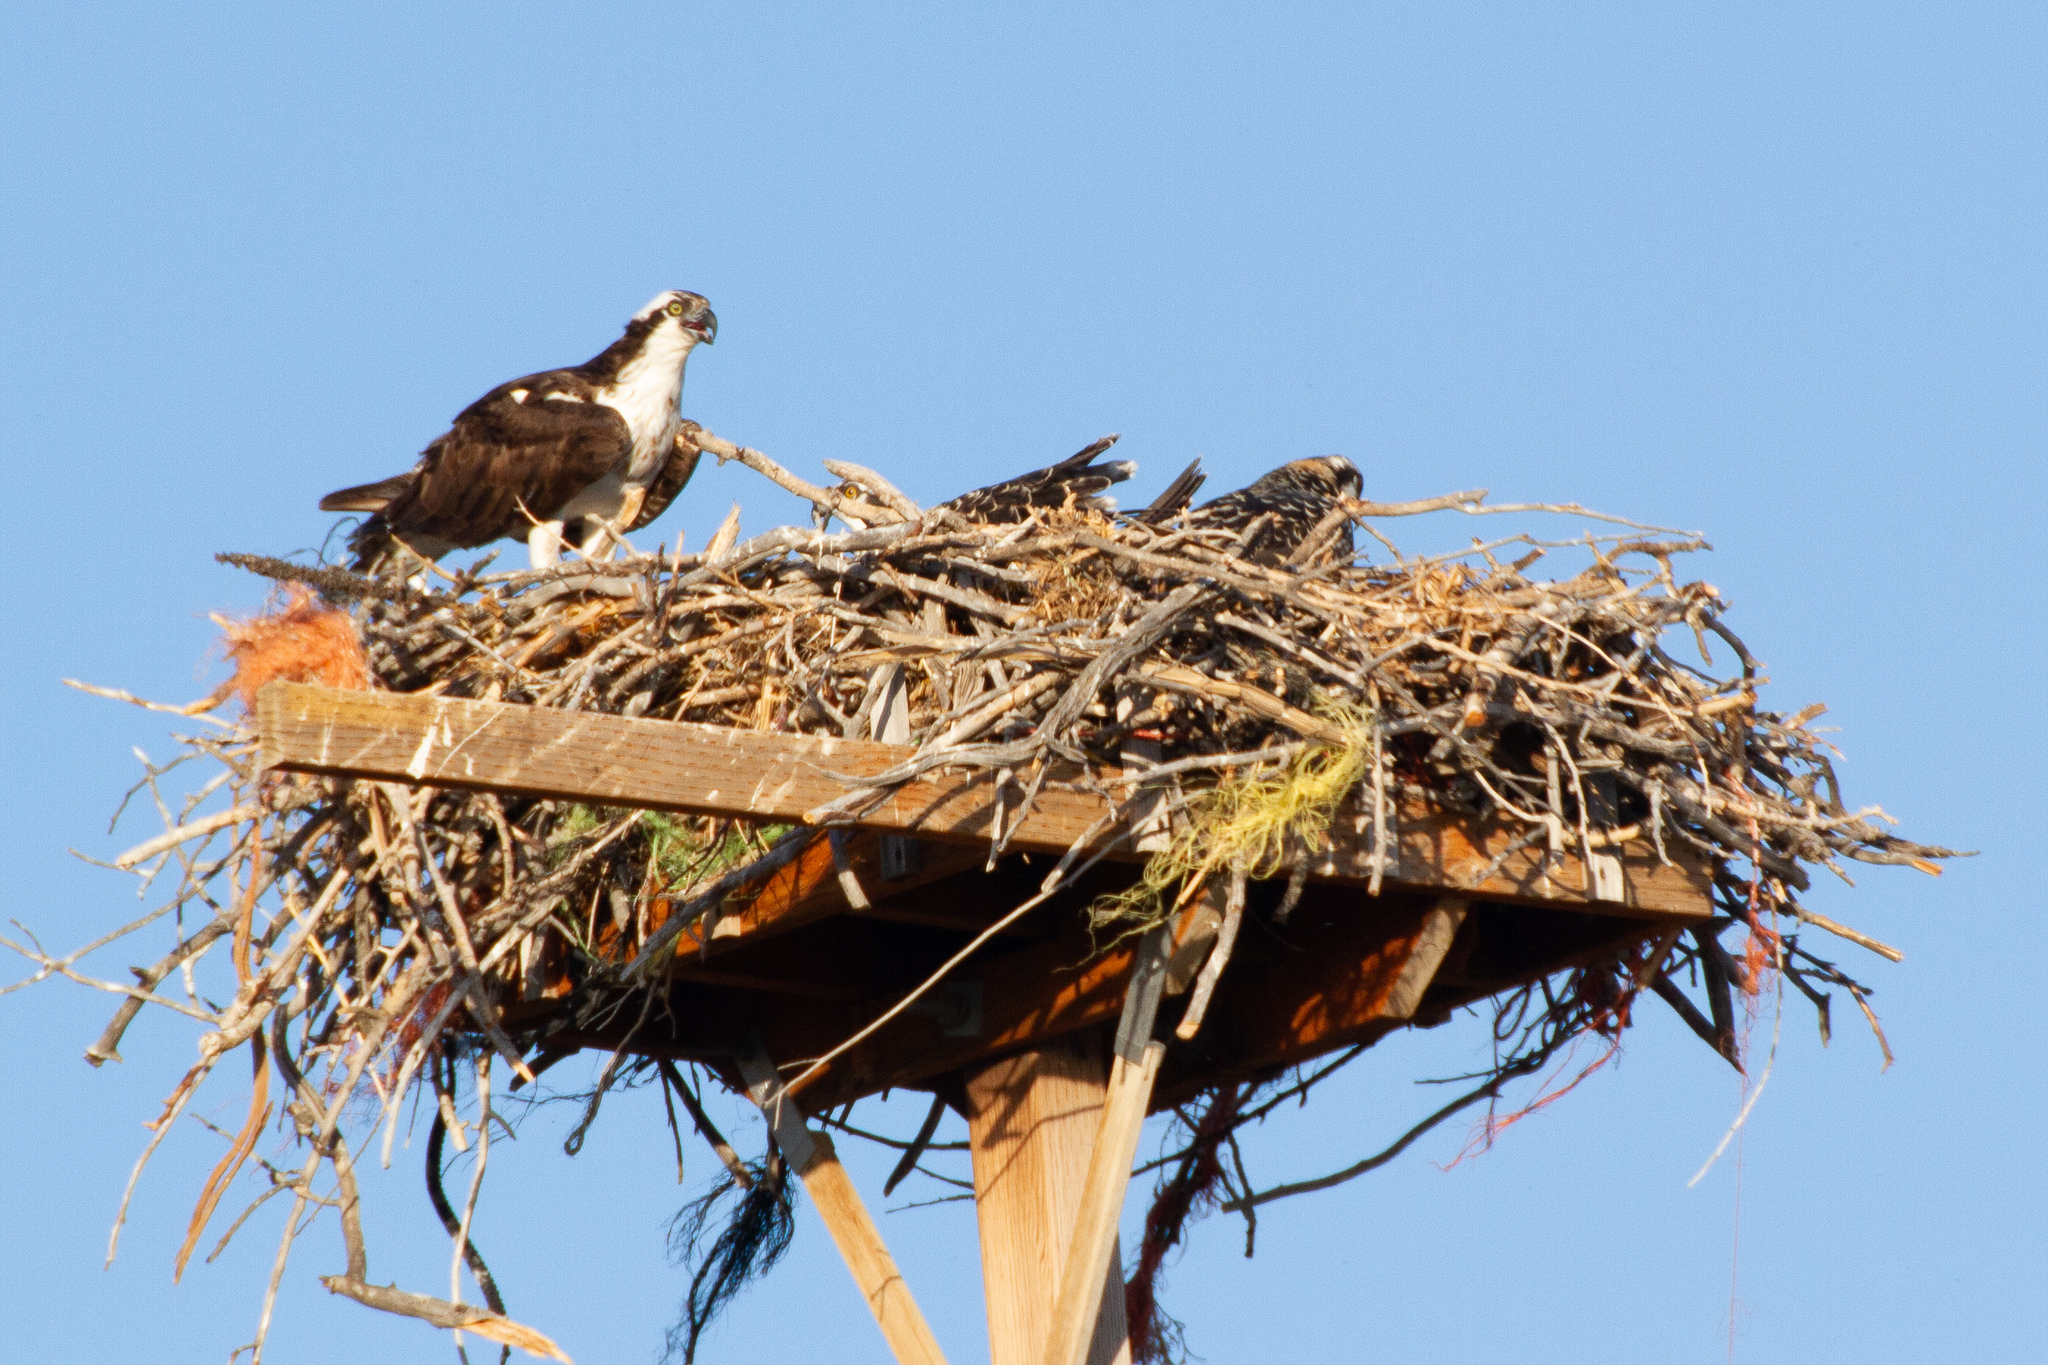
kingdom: Animalia
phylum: Chordata
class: Aves
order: Accipitriformes
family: Pandionidae
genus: Pandion
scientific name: Pandion haliaetus
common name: Osprey
